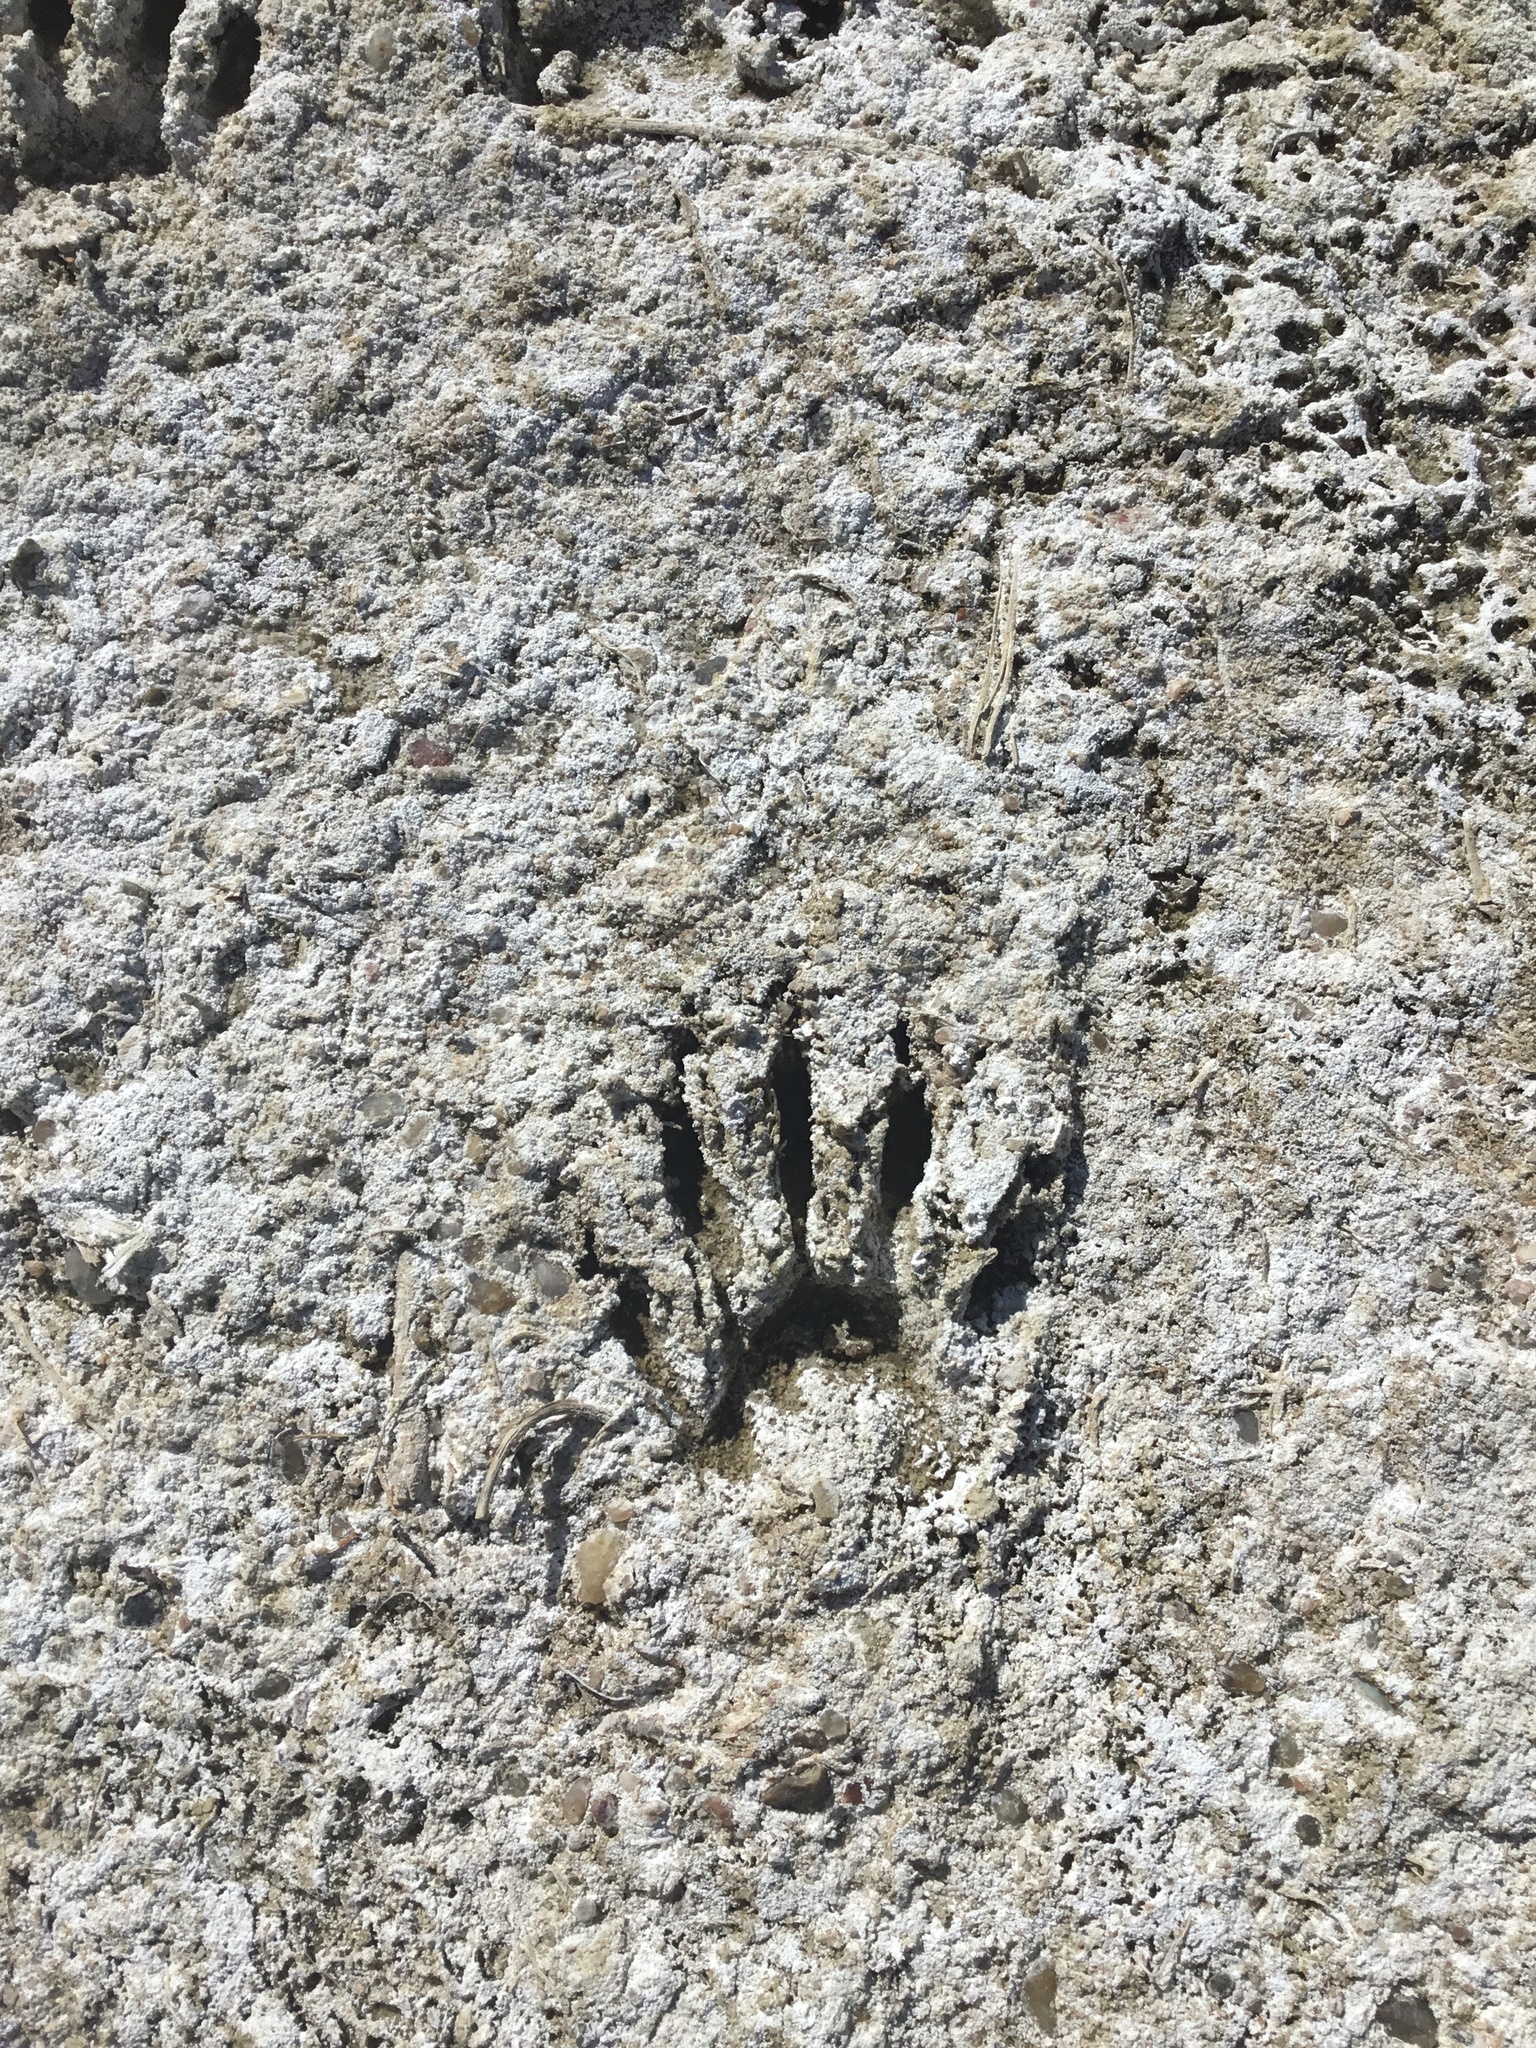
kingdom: Animalia
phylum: Chordata
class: Mammalia
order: Carnivora
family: Procyonidae
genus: Procyon
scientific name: Procyon lotor
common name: Raccoon
